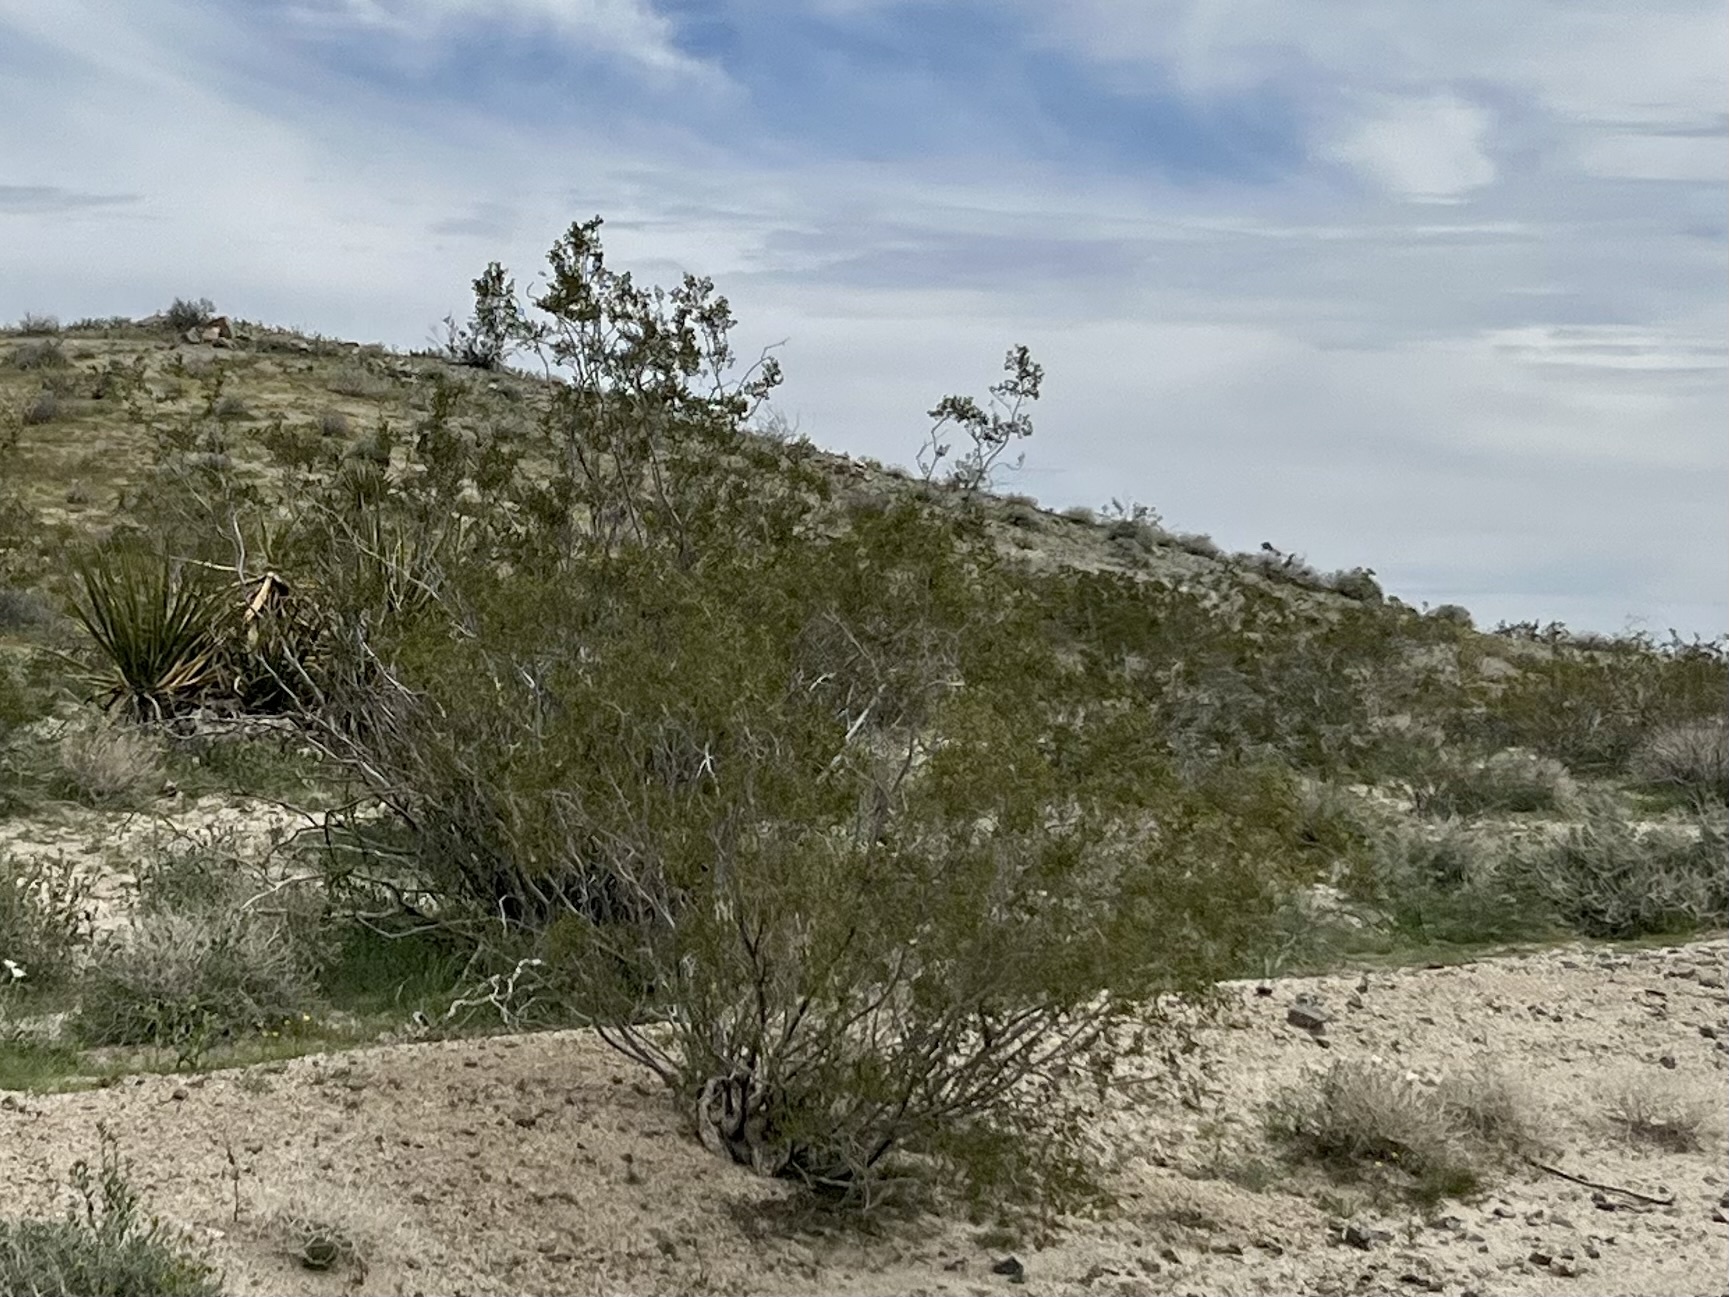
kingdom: Plantae
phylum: Tracheophyta
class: Magnoliopsida
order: Zygophyllales
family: Zygophyllaceae
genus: Larrea
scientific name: Larrea tridentata
